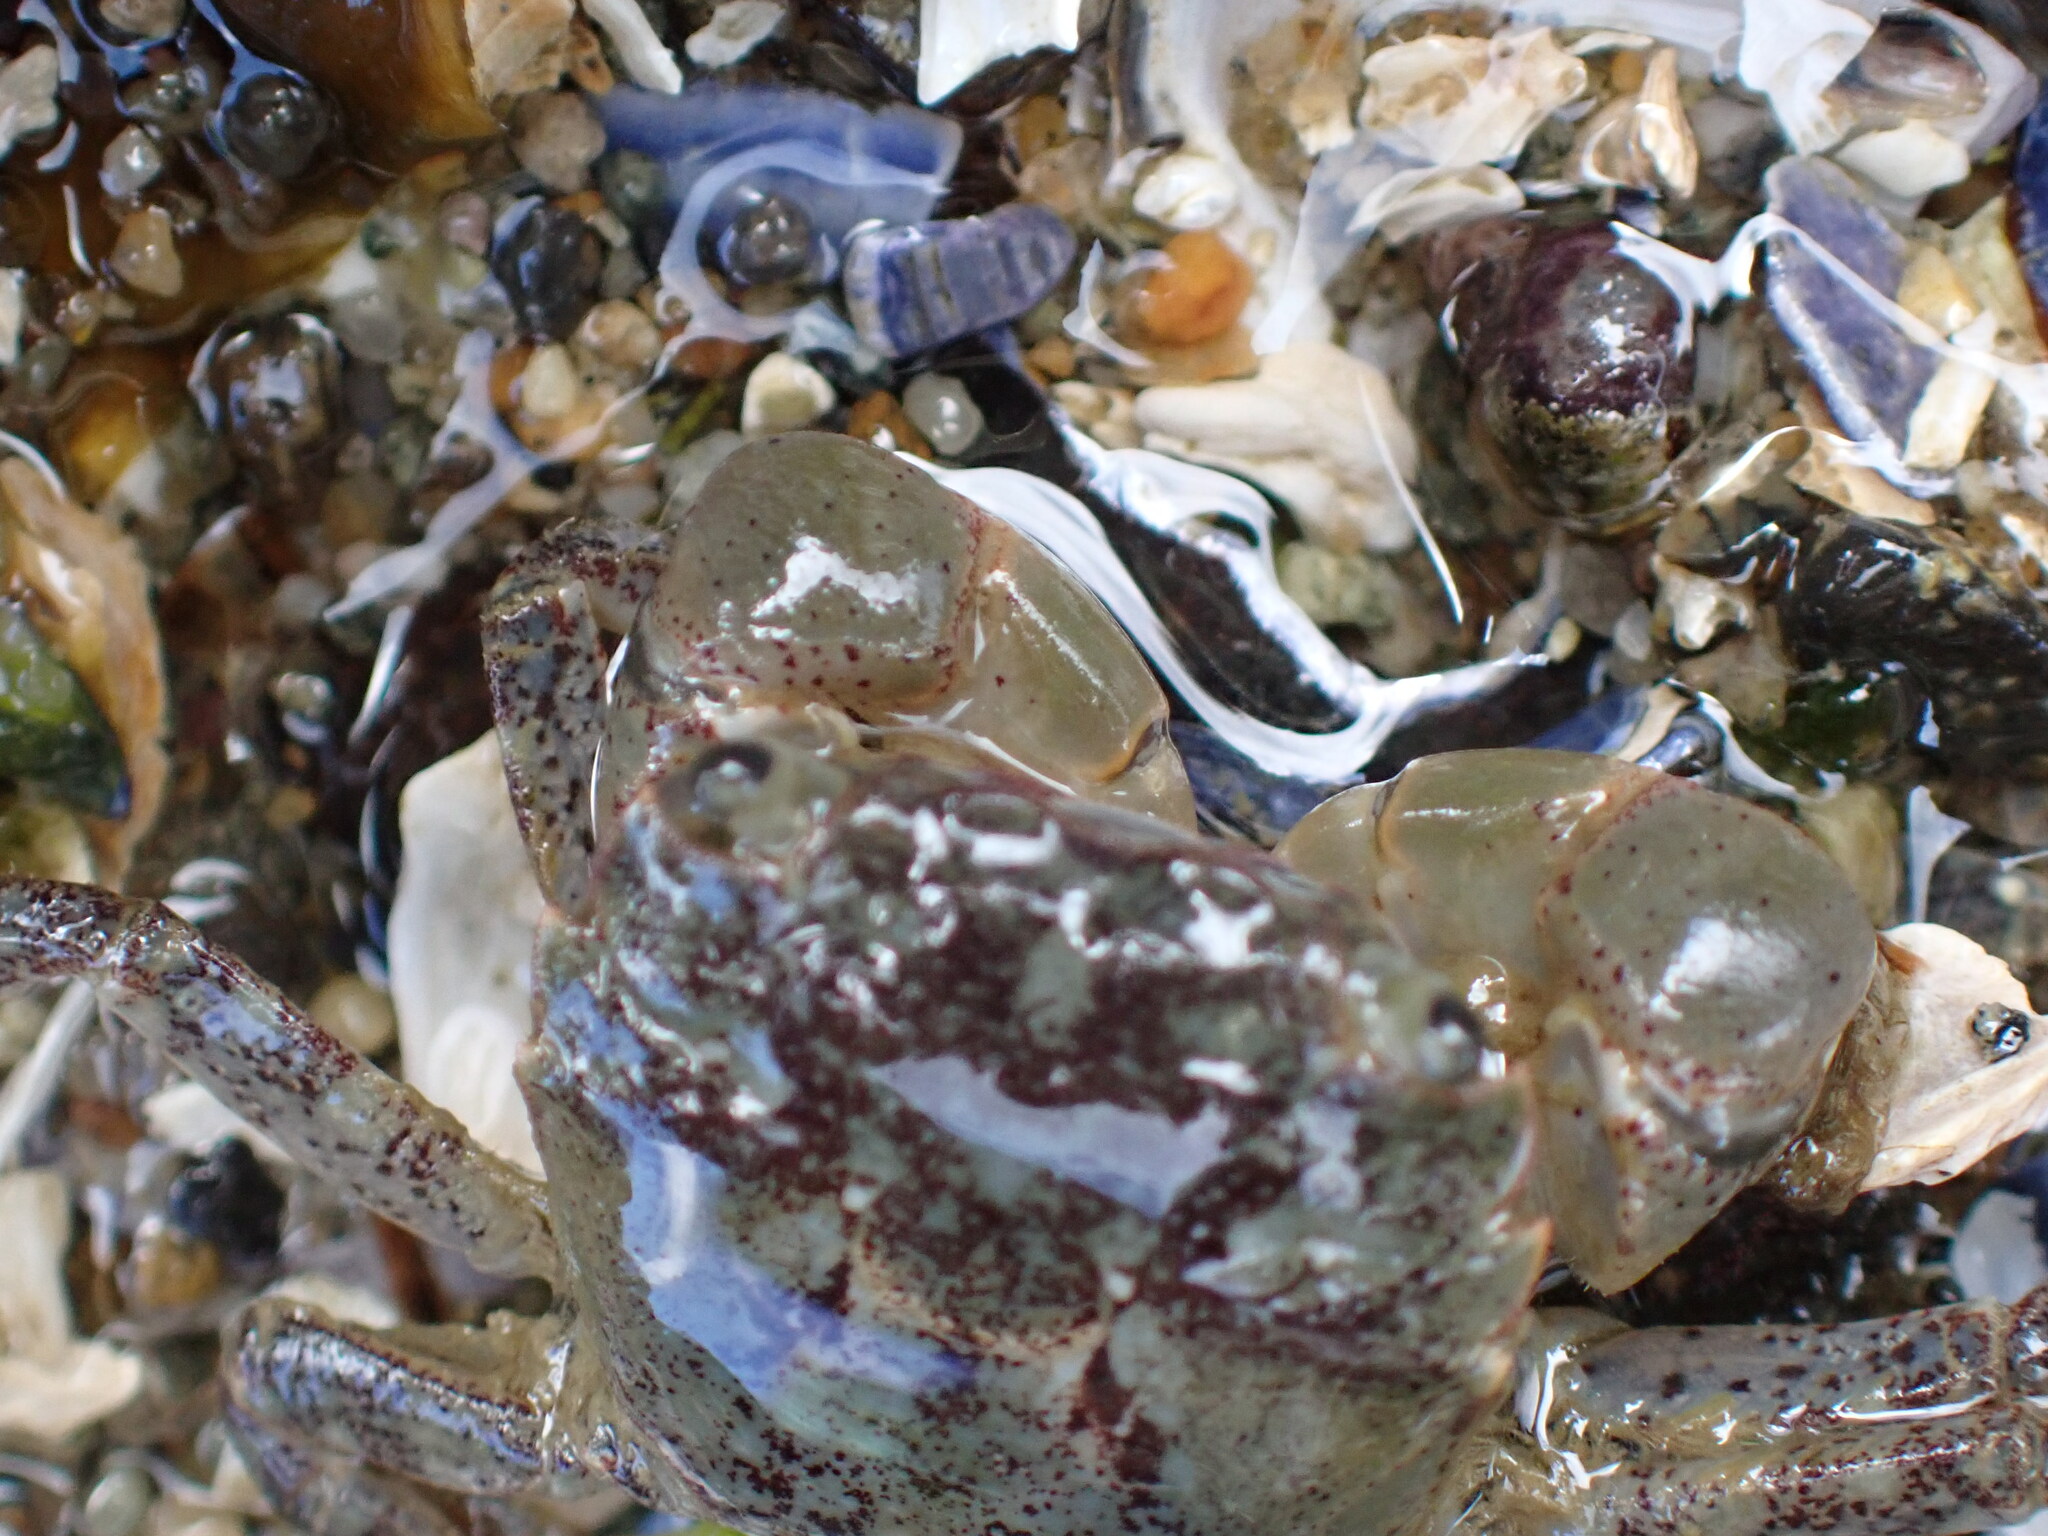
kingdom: Animalia
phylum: Arthropoda
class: Malacostraca
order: Decapoda
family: Varunidae
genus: Hemigrapsus
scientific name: Hemigrapsus oregonensis
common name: Yellow shore crab
